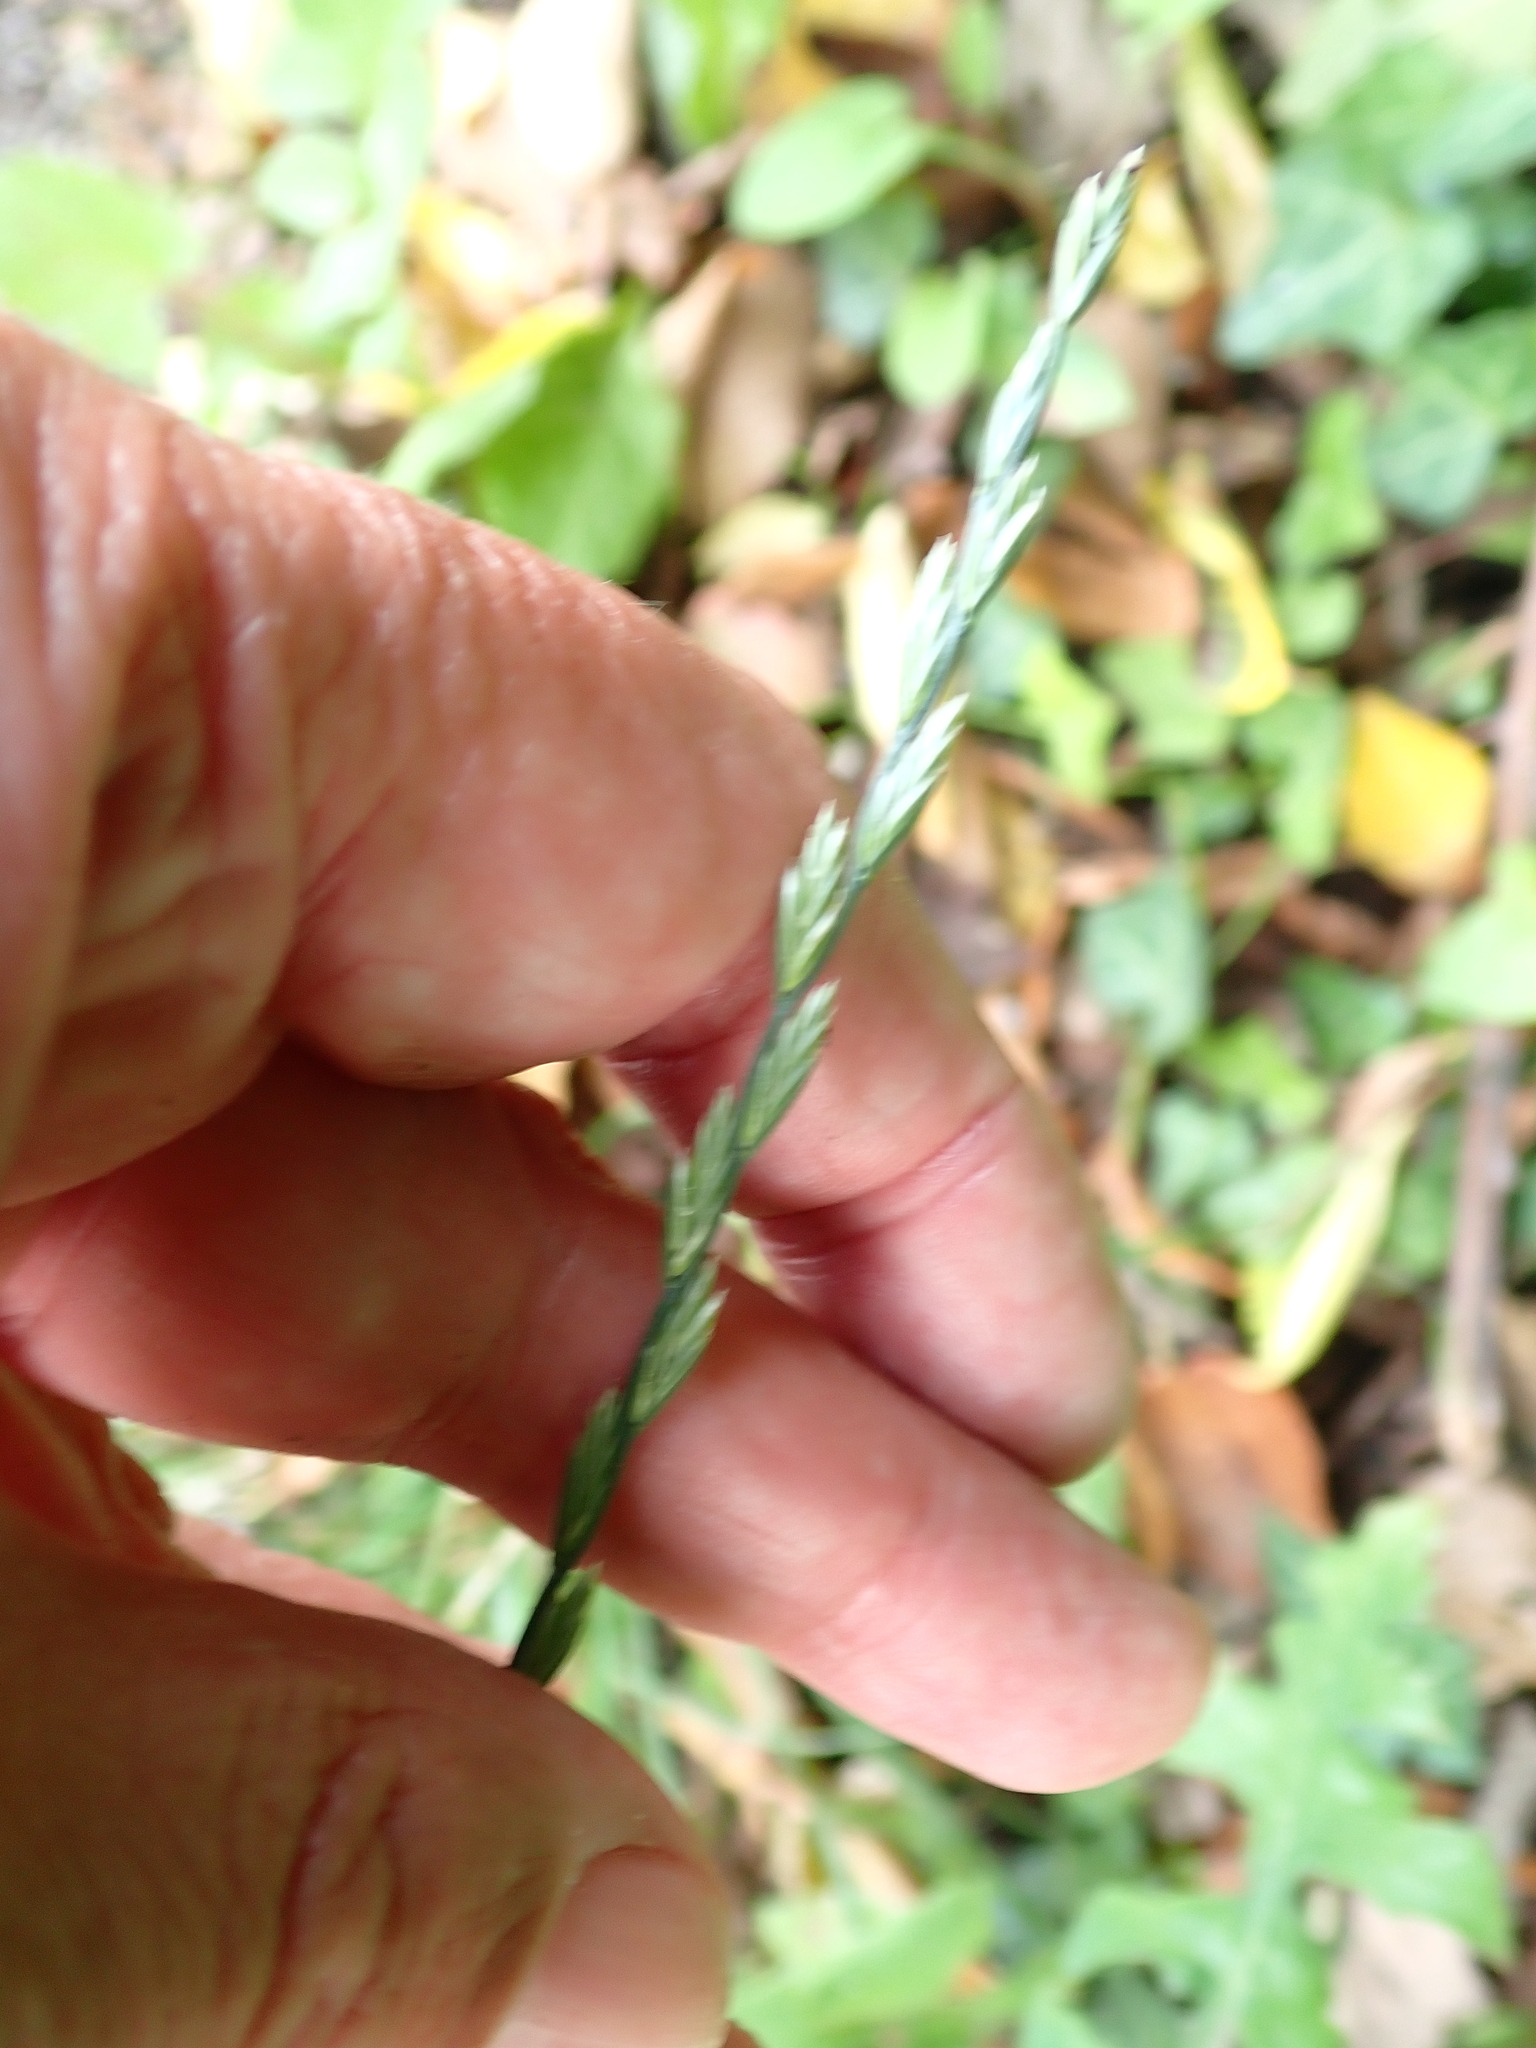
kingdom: Plantae
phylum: Tracheophyta
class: Liliopsida
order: Poales
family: Poaceae
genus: Lolium
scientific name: Lolium perenne
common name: Perennial ryegrass
